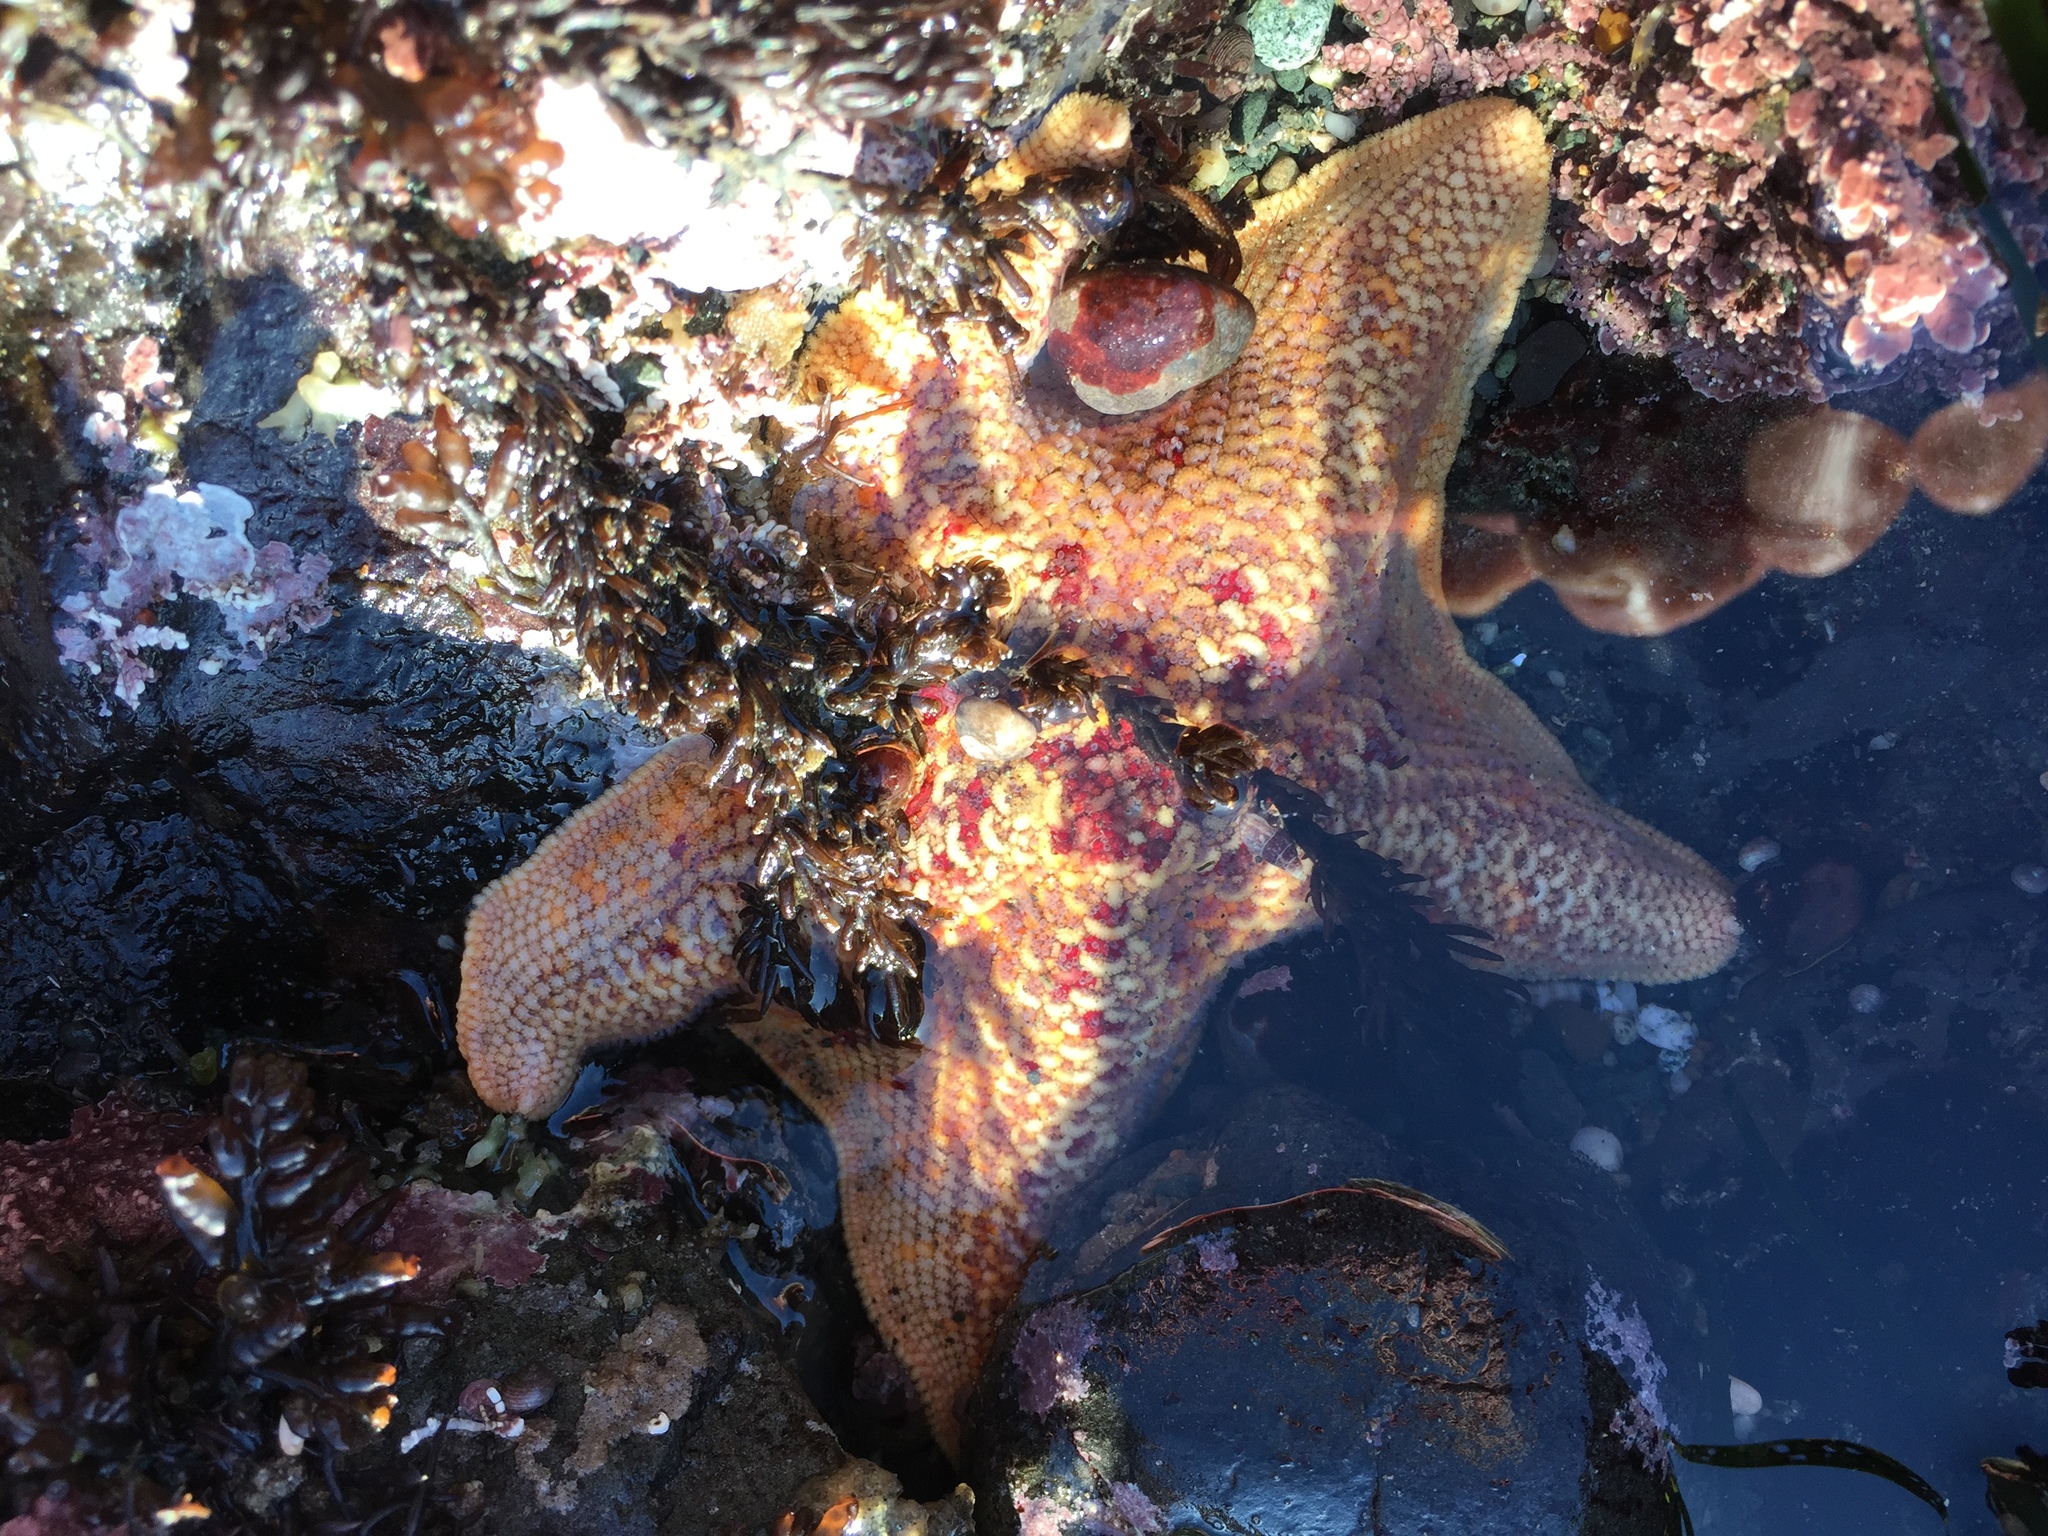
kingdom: Animalia
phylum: Echinodermata
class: Asteroidea
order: Valvatida
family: Asterinidae
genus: Patiria
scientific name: Patiria miniata
